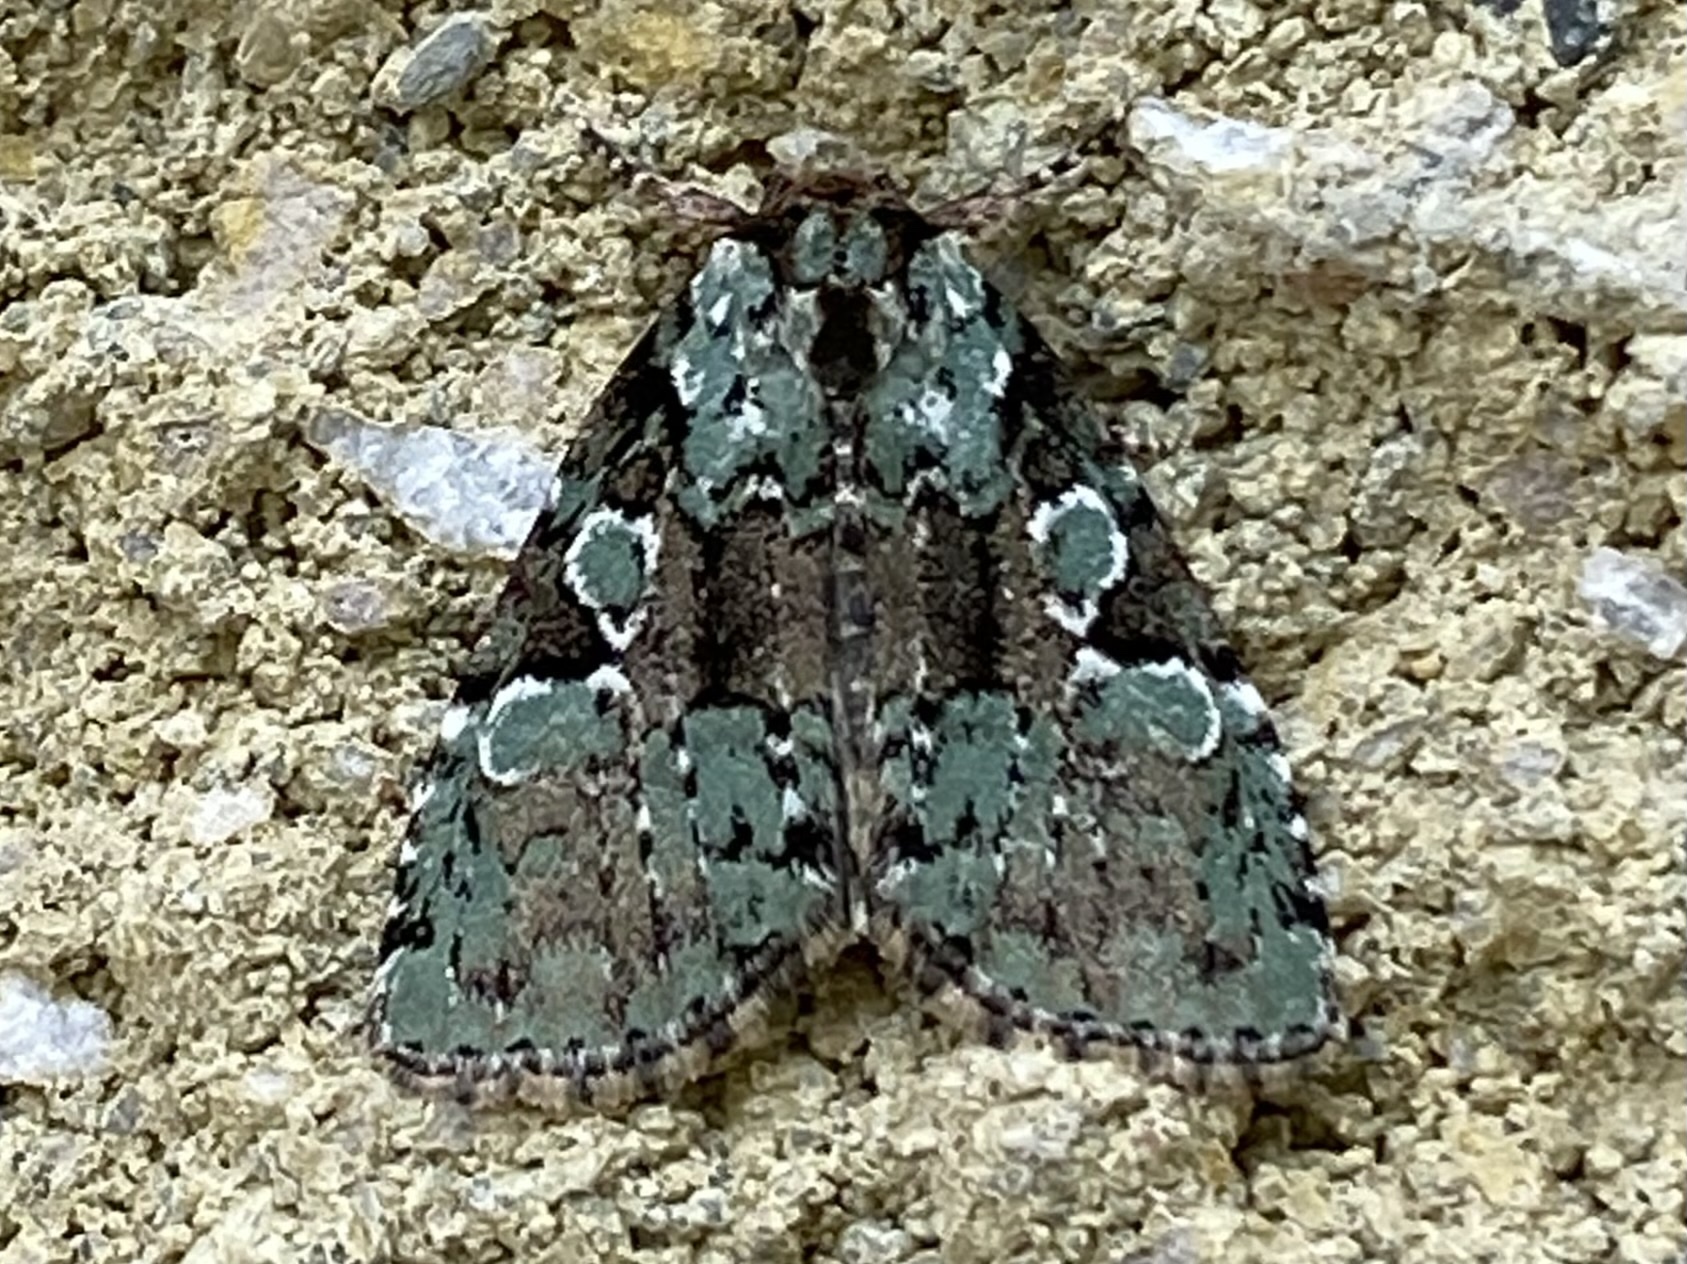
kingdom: Animalia
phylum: Arthropoda
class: Insecta
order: Lepidoptera
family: Noctuidae
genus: Leuconycta
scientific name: Leuconycta lepidula
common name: Marbled-green leuconycta moth
